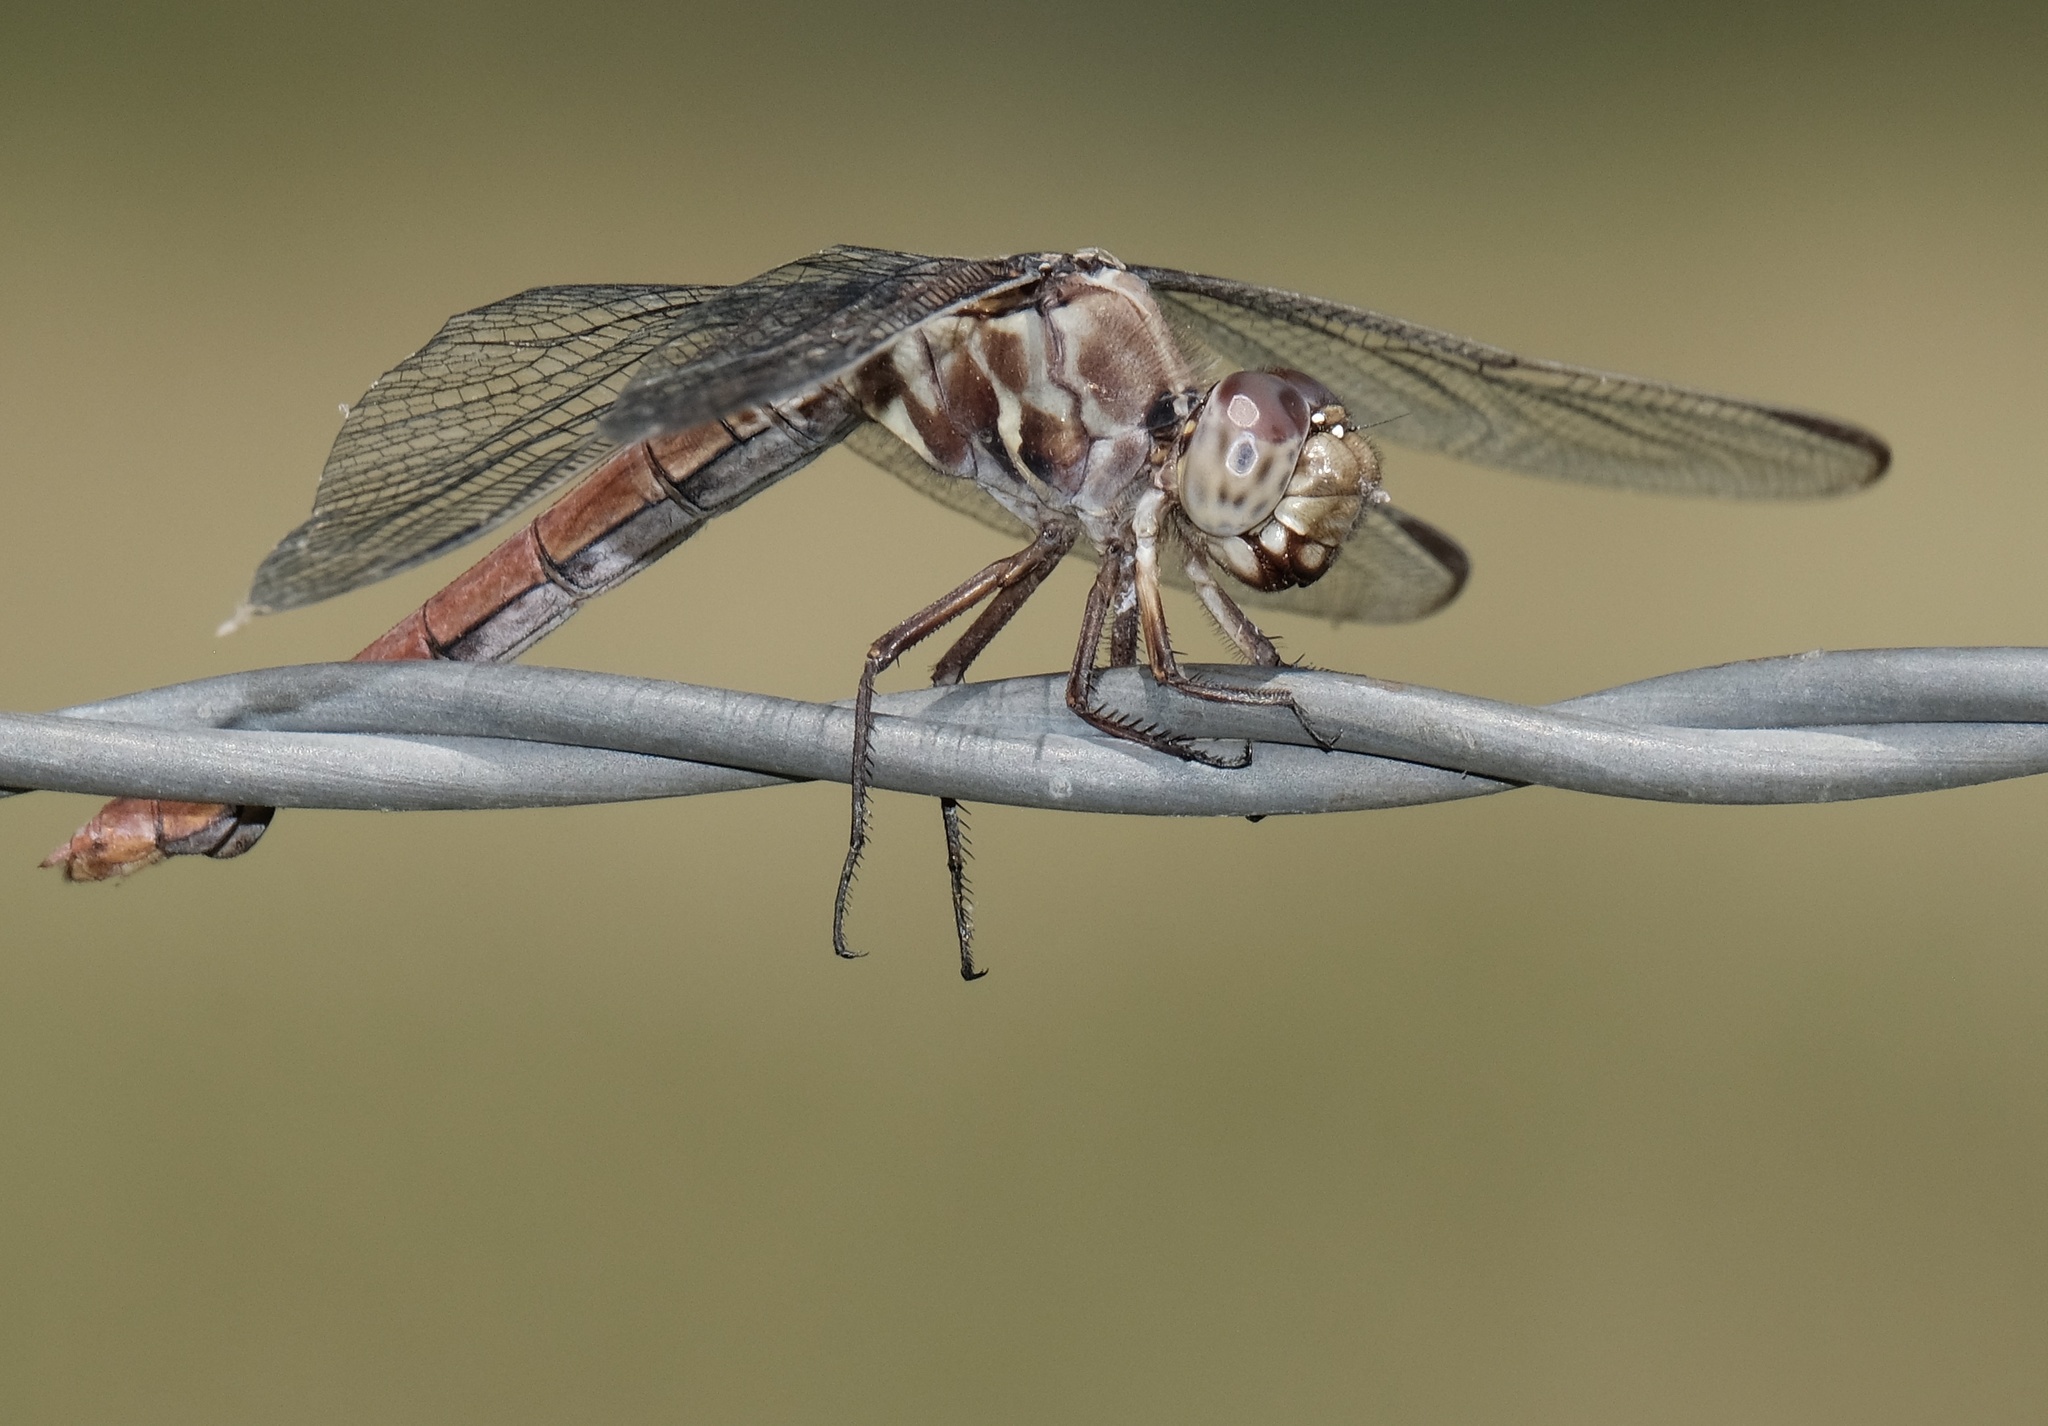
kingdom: Animalia
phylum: Arthropoda
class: Insecta
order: Odonata
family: Libellulidae
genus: Orthemis
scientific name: Orthemis ferruginea
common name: Roseate skimmer
